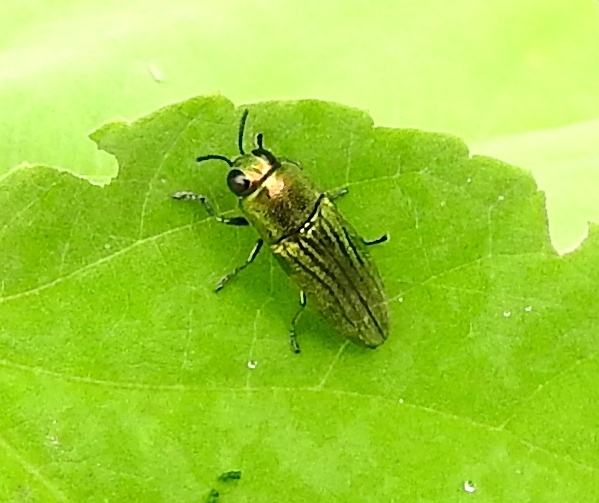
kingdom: Animalia
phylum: Arthropoda
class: Insecta
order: Coleoptera
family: Buprestidae
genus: Agaeocera
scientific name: Agaeocera
